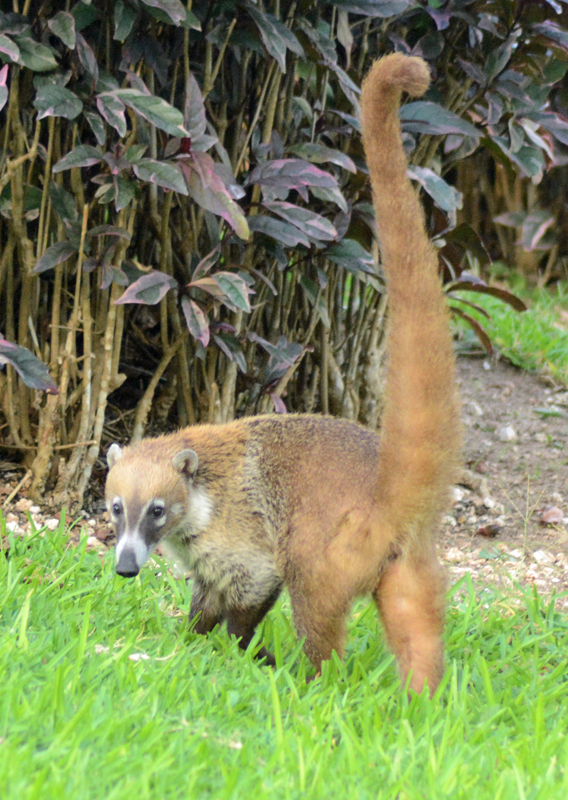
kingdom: Animalia
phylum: Chordata
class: Mammalia
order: Carnivora
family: Procyonidae
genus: Nasua
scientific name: Nasua narica
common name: White-nosed coati
